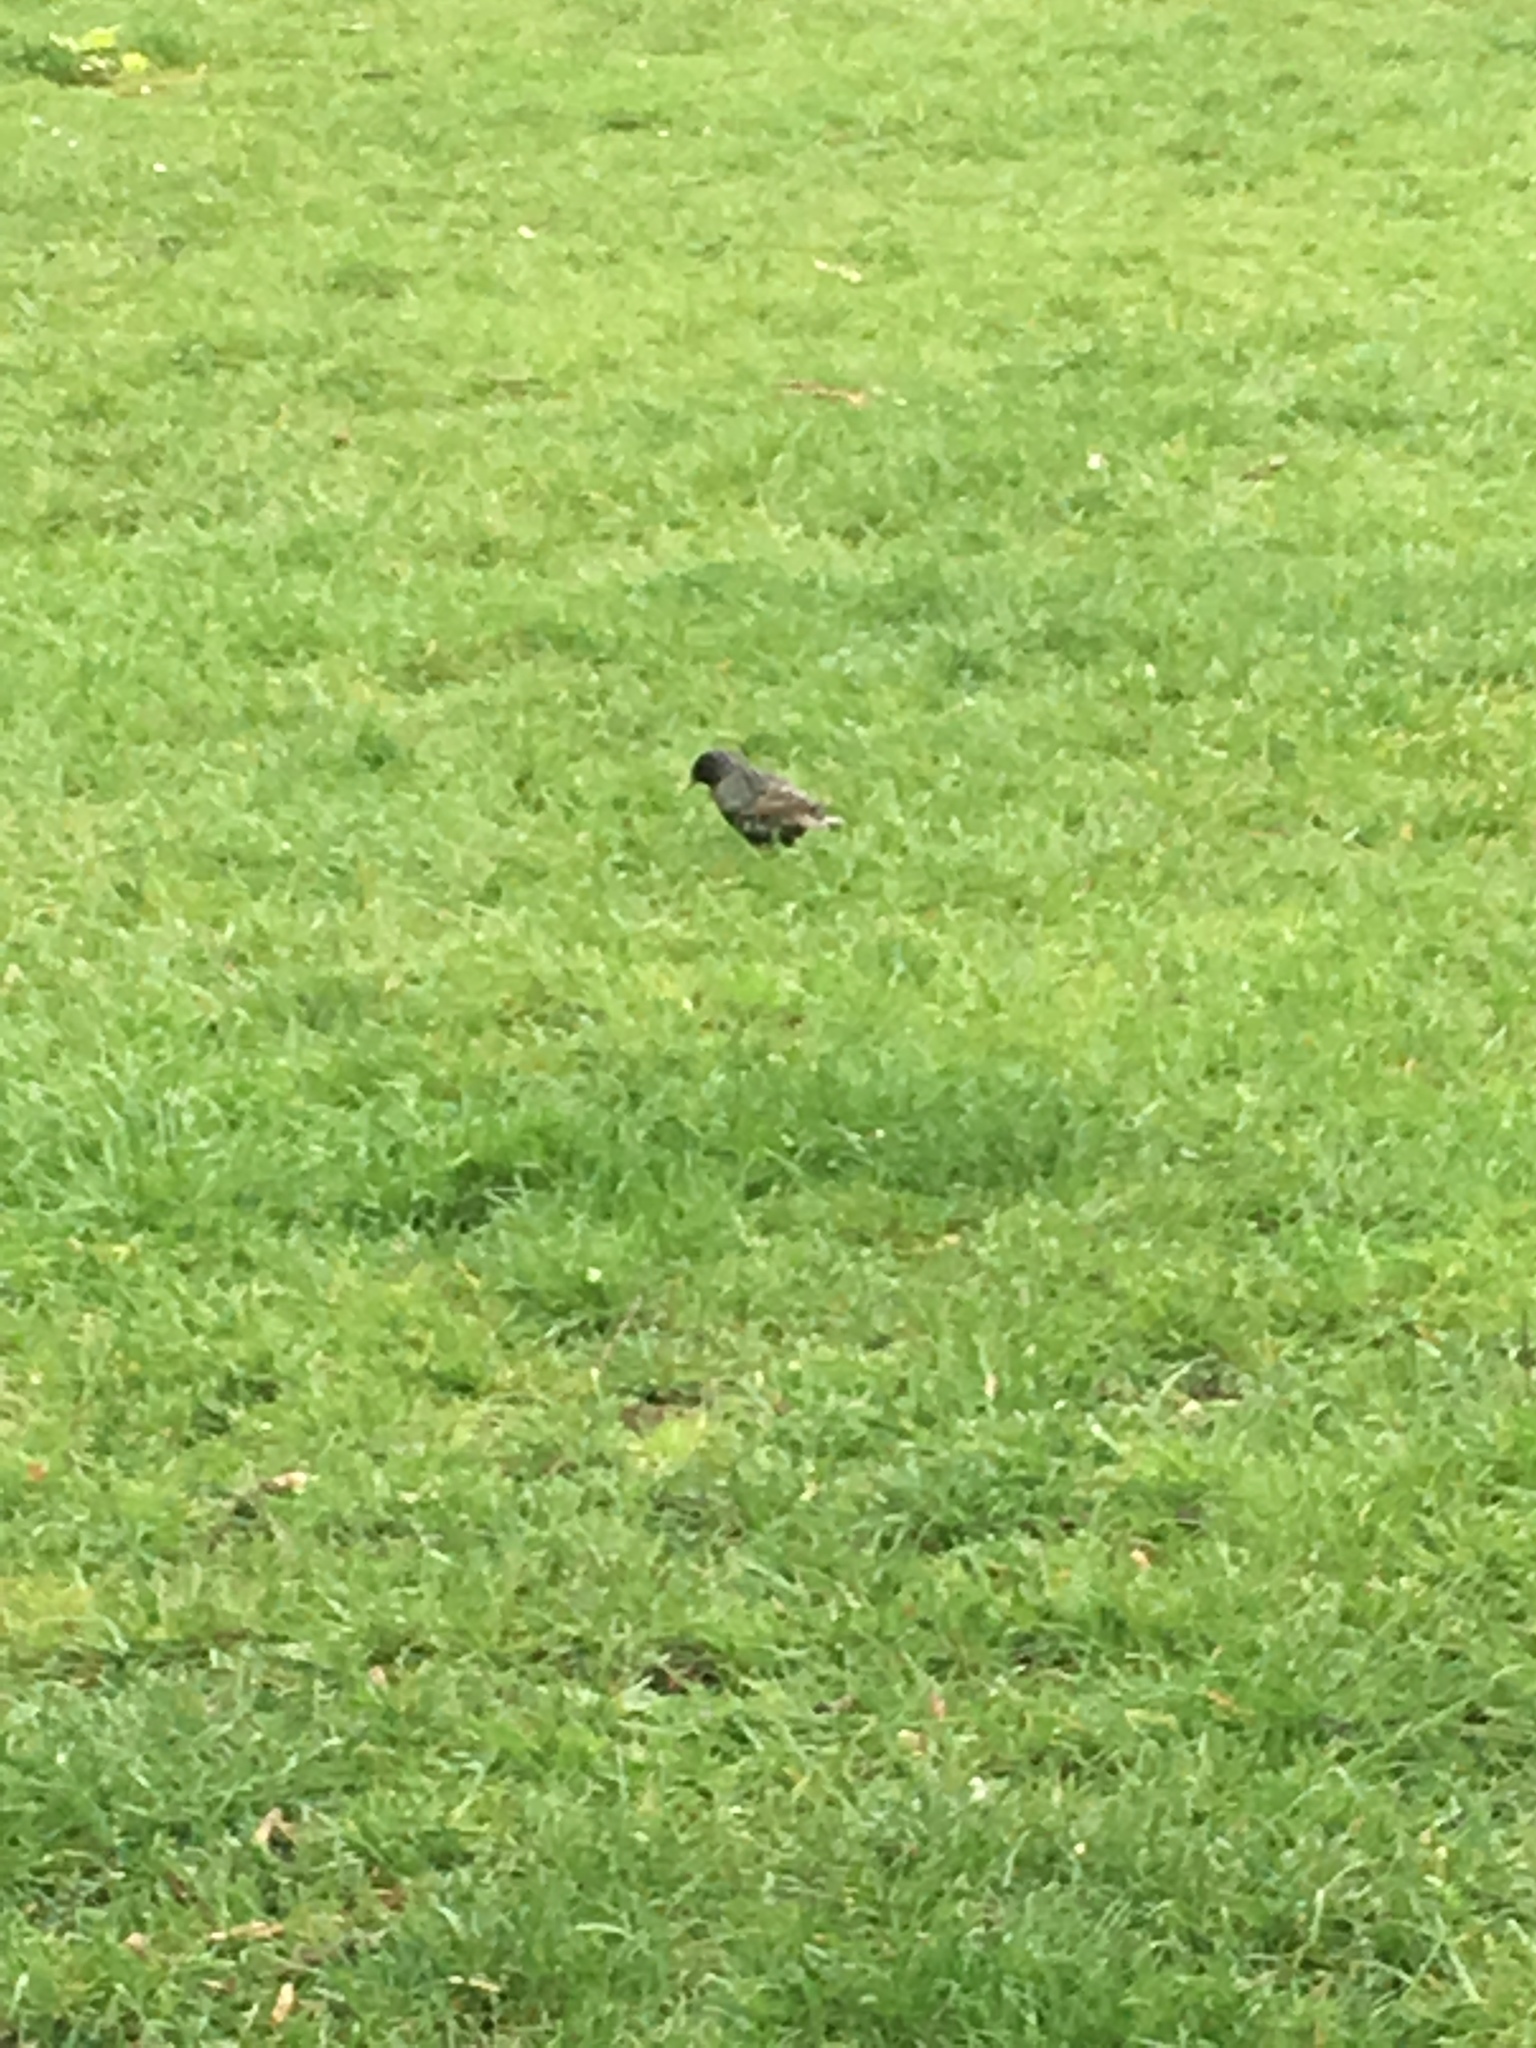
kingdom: Animalia
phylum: Chordata
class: Aves
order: Passeriformes
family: Sturnidae
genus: Sturnus
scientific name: Sturnus vulgaris
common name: Common starling
